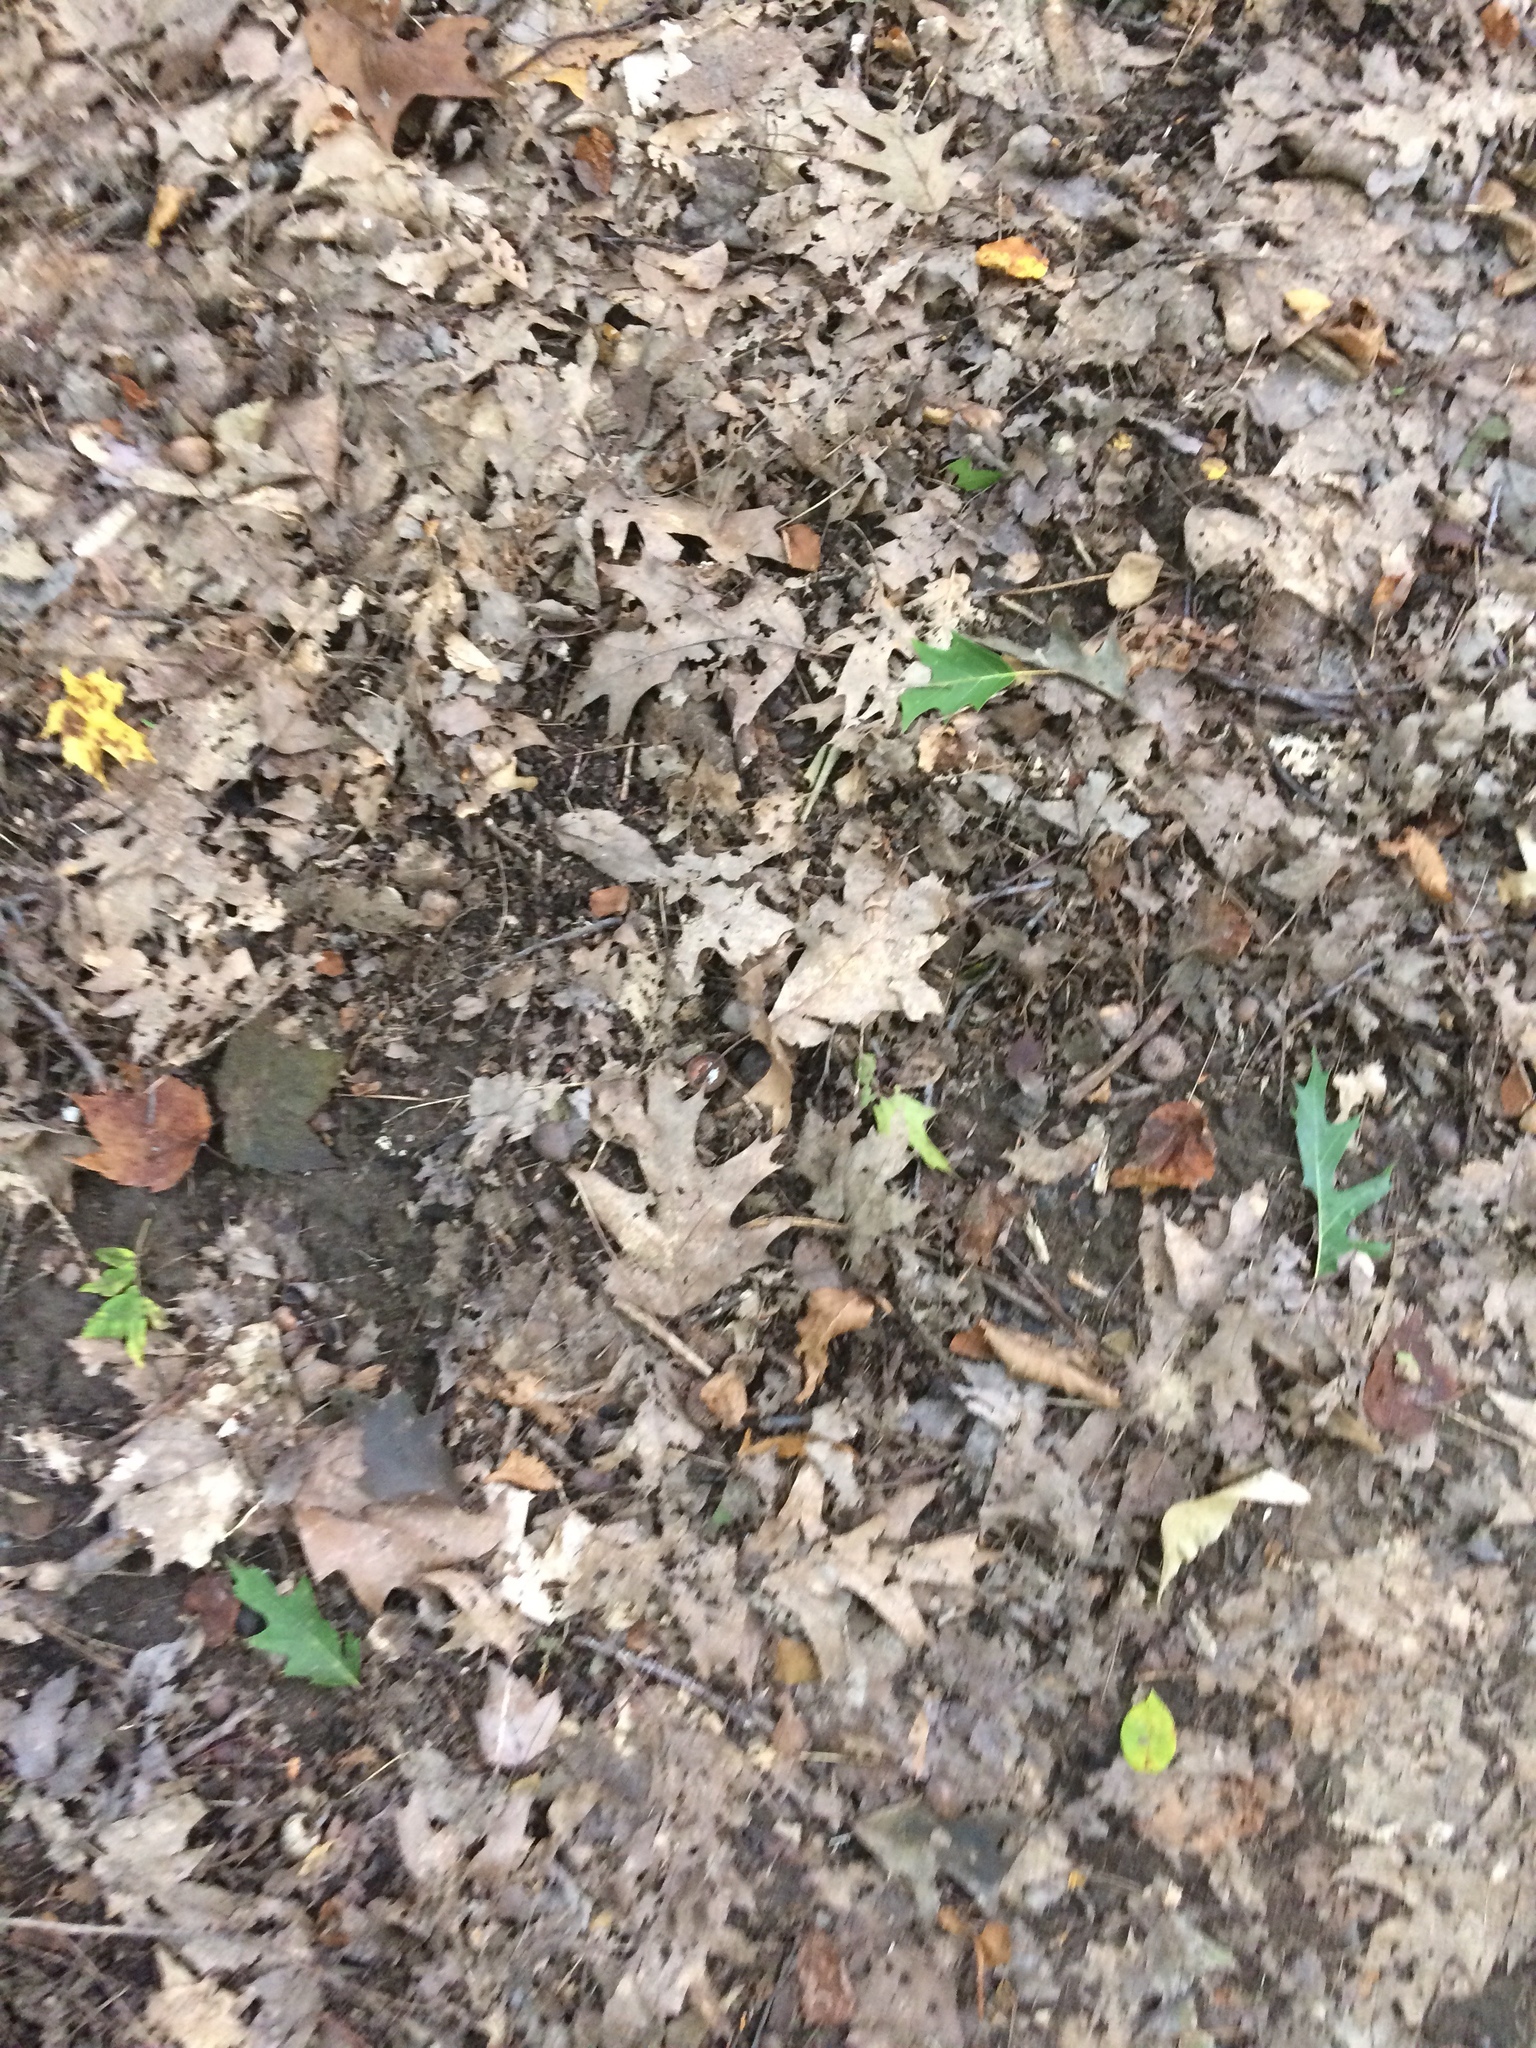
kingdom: Plantae
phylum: Tracheophyta
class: Magnoliopsida
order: Fagales
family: Fagaceae
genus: Quercus
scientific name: Quercus rubra
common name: Red oak
